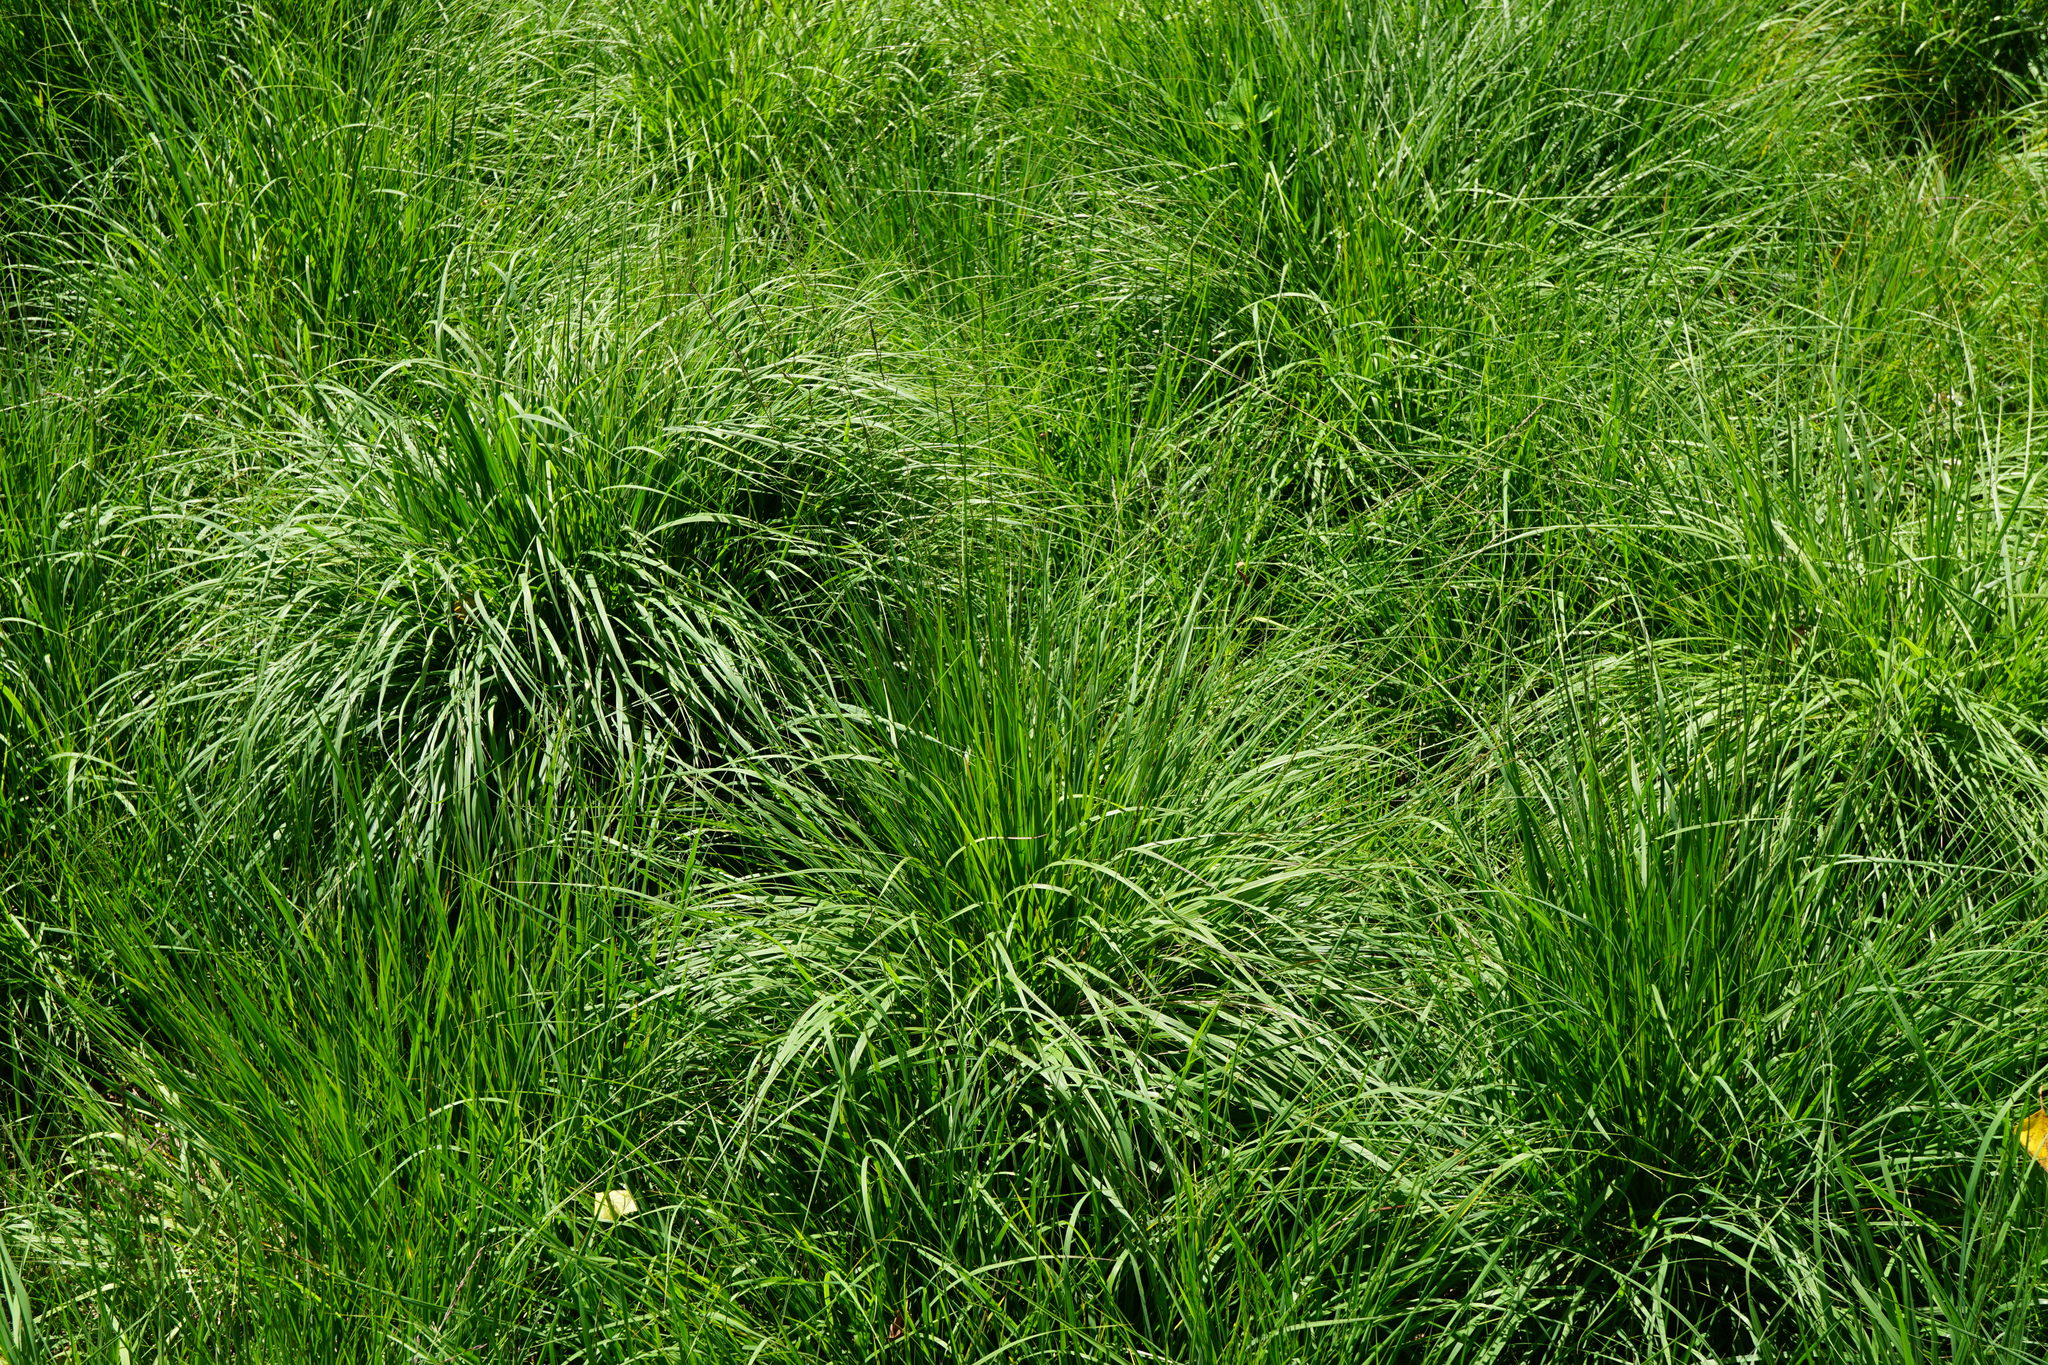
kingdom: Plantae
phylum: Tracheophyta
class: Liliopsida
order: Poales
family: Poaceae
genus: Molinia
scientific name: Molinia caerulea
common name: Purple moor-grass
